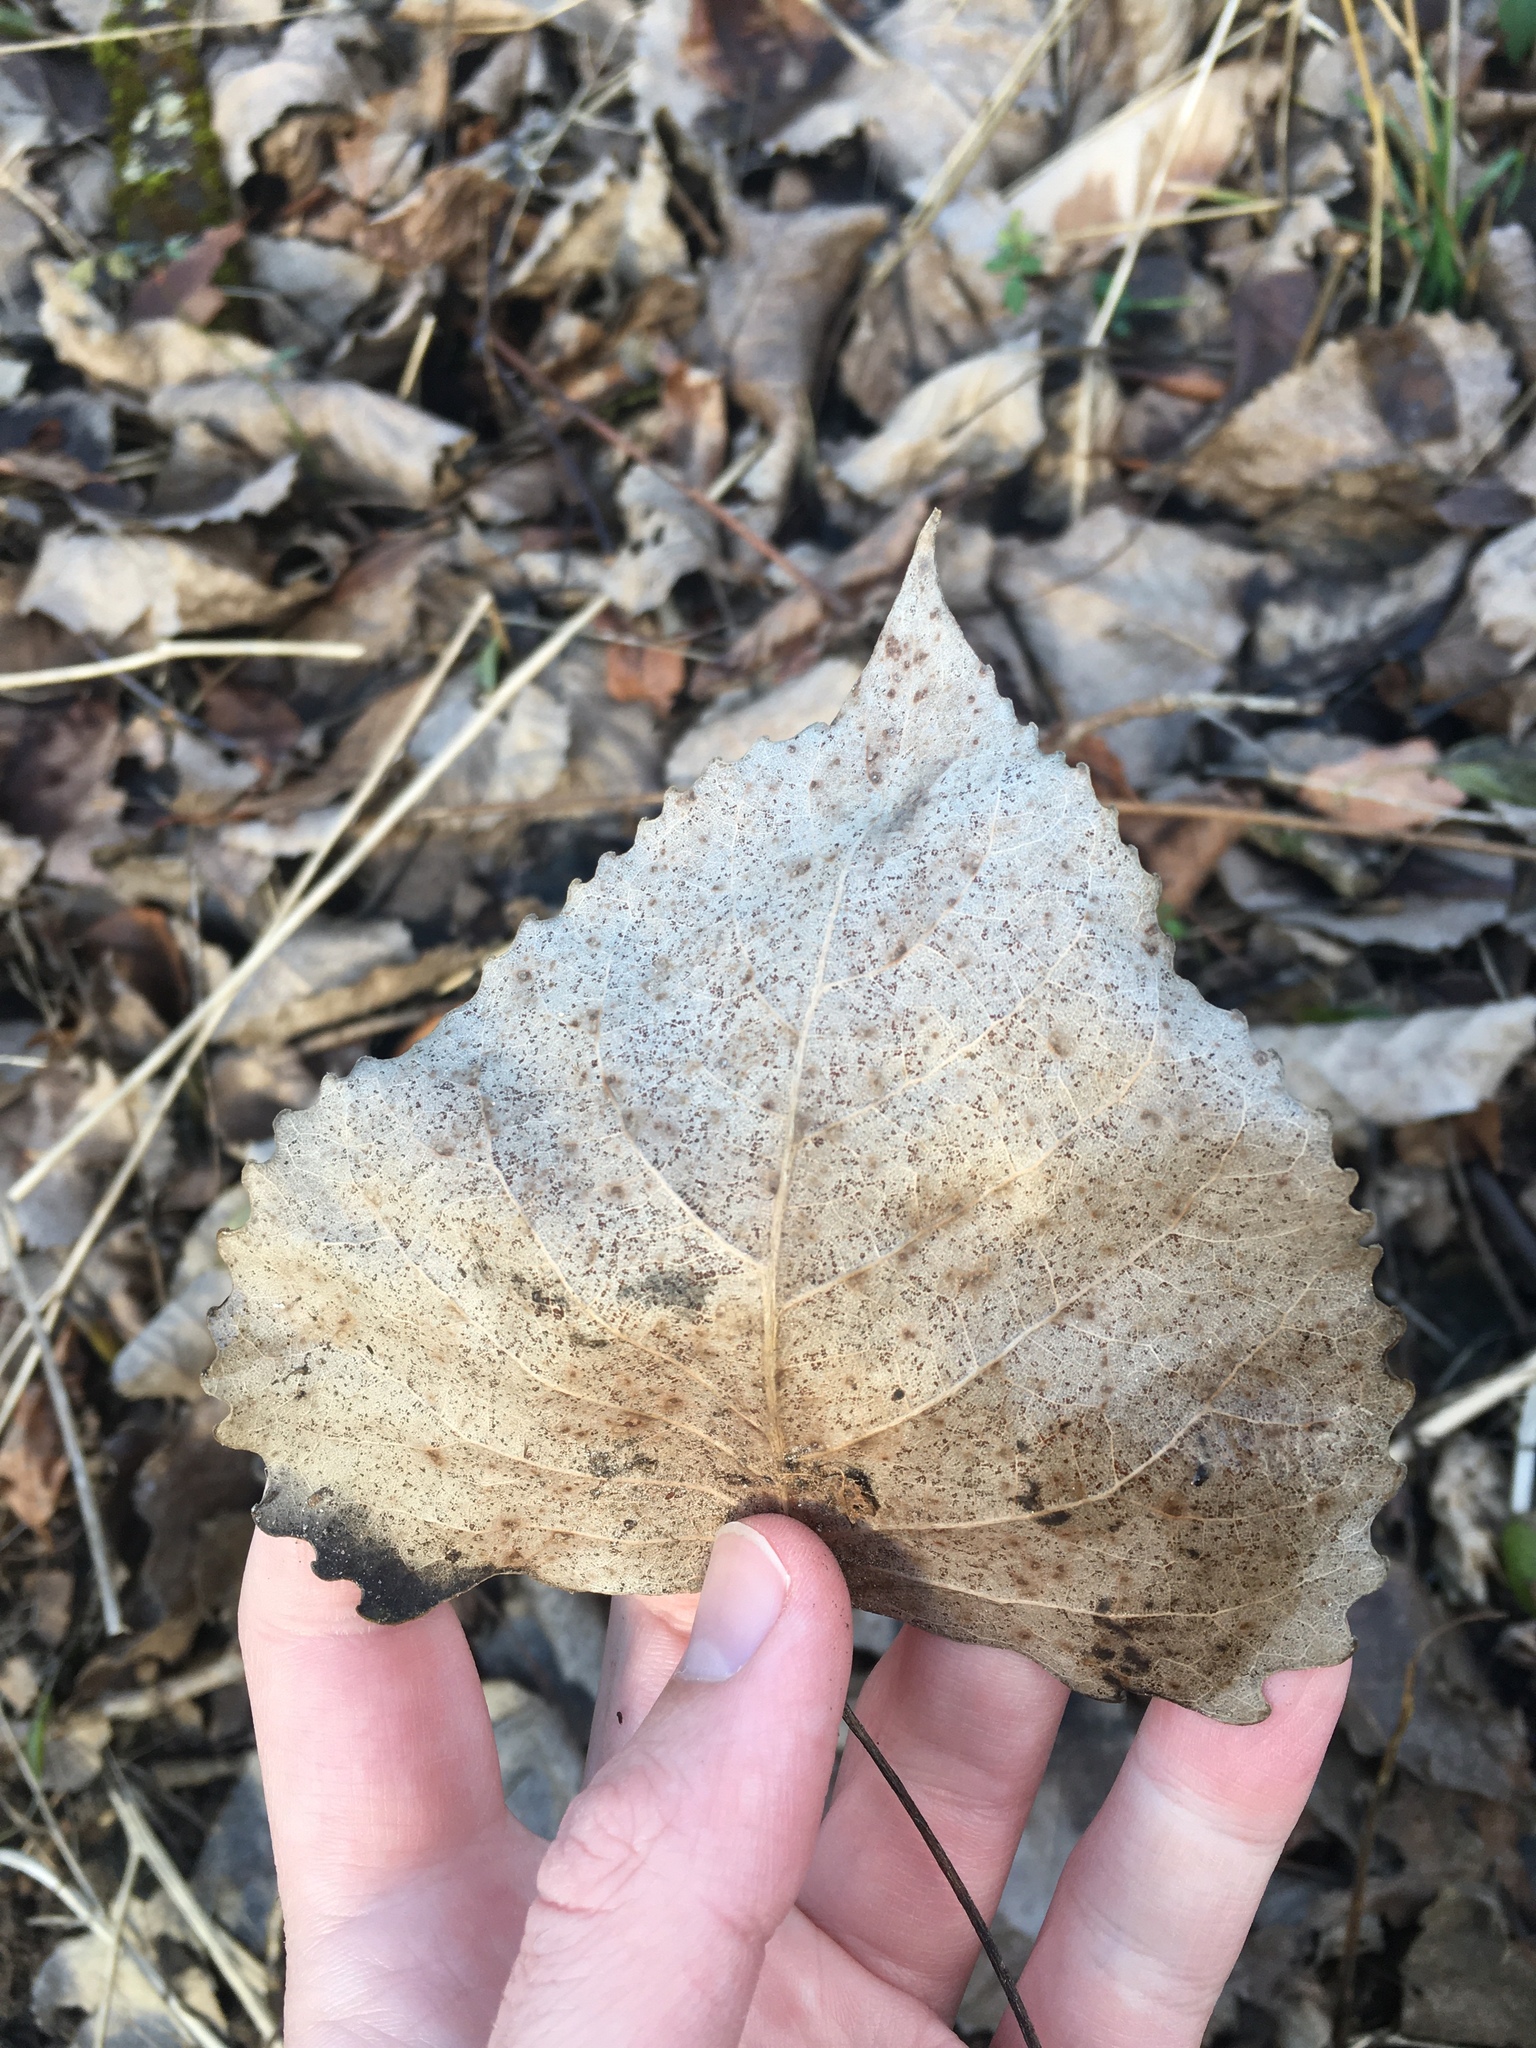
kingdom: Plantae
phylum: Tracheophyta
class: Magnoliopsida
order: Malpighiales
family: Salicaceae
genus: Populus
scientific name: Populus deltoides
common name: Eastern cottonwood
